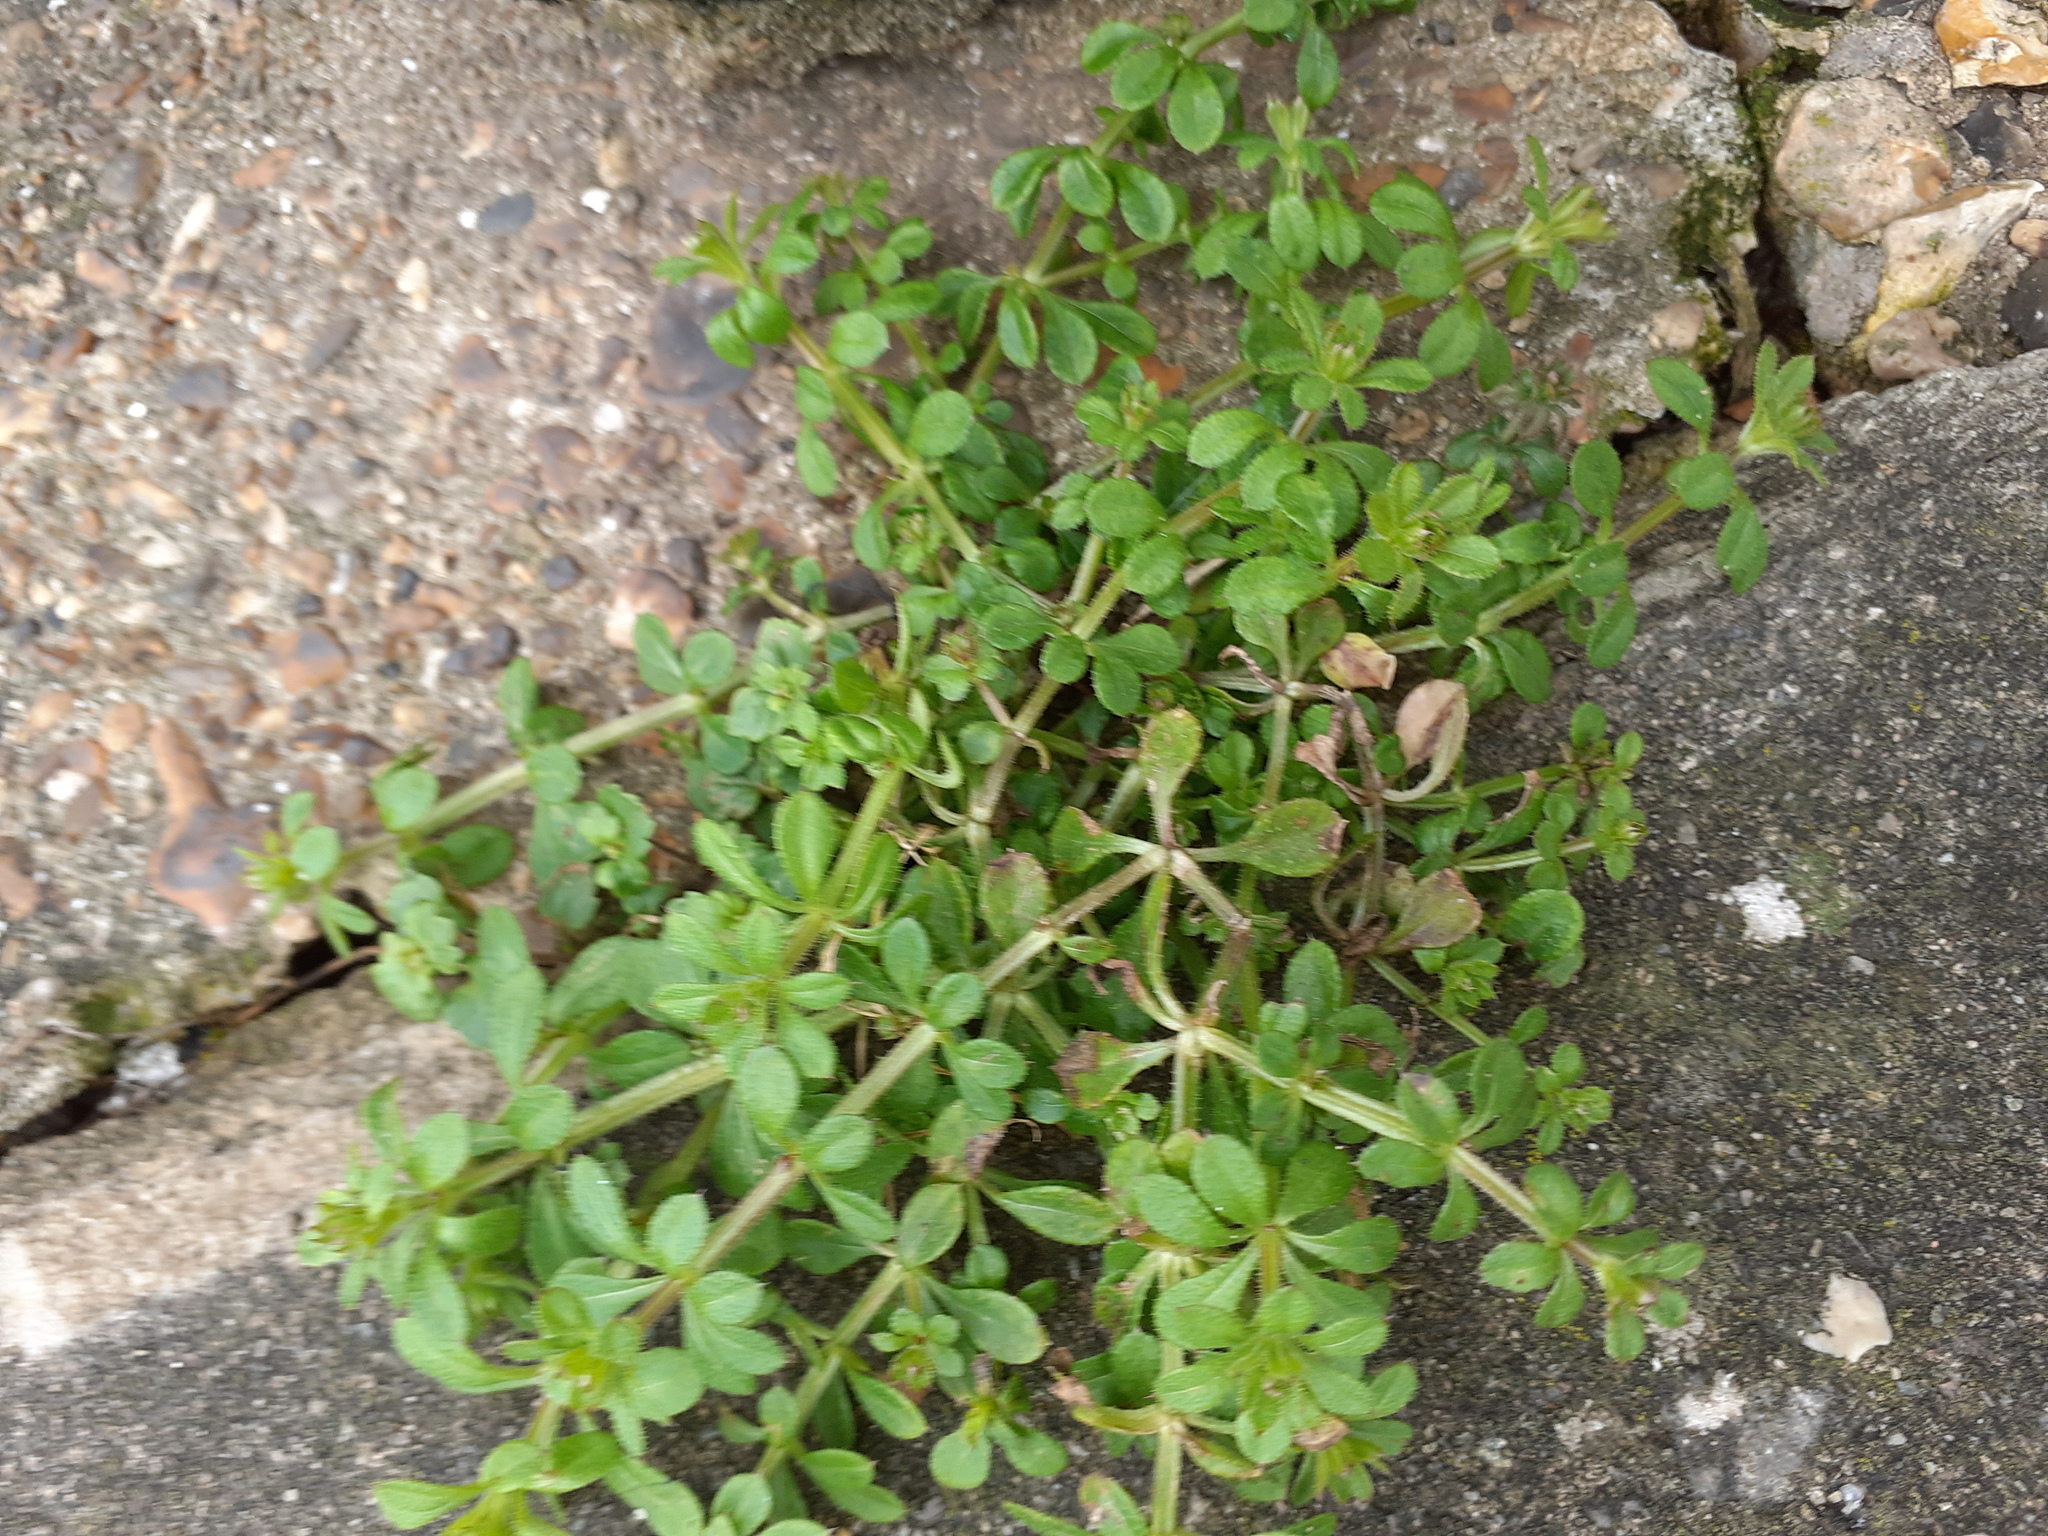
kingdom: Plantae
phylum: Tracheophyta
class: Magnoliopsida
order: Gentianales
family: Rubiaceae
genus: Galium
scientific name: Galium aparine
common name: Cleavers
